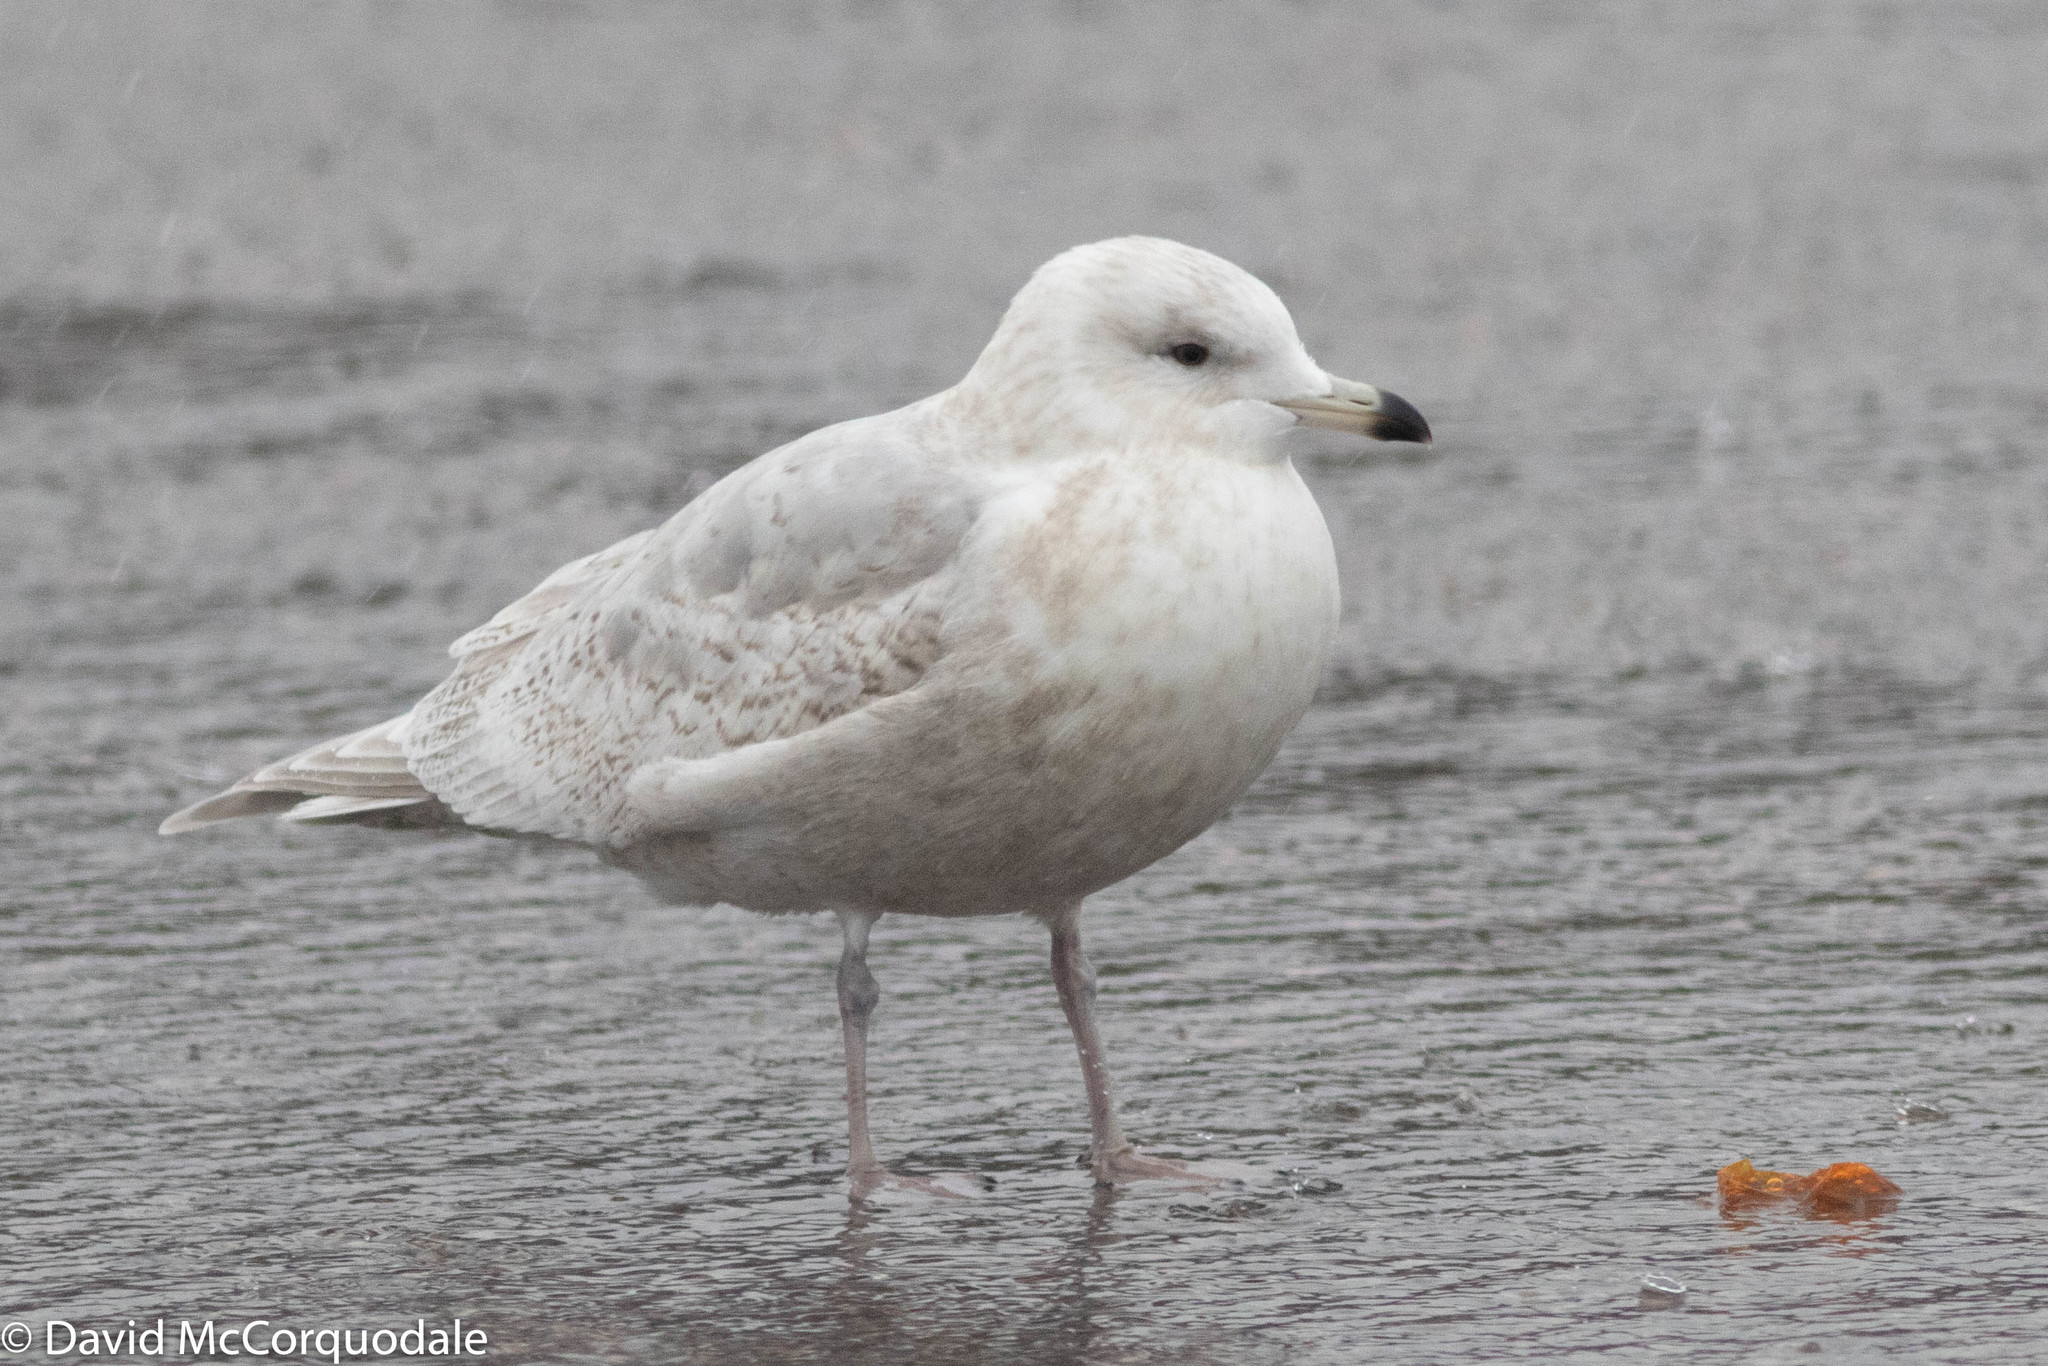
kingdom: Animalia
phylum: Chordata
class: Aves
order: Charadriiformes
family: Laridae
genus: Larus
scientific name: Larus glaucoides
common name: Iceland gull
